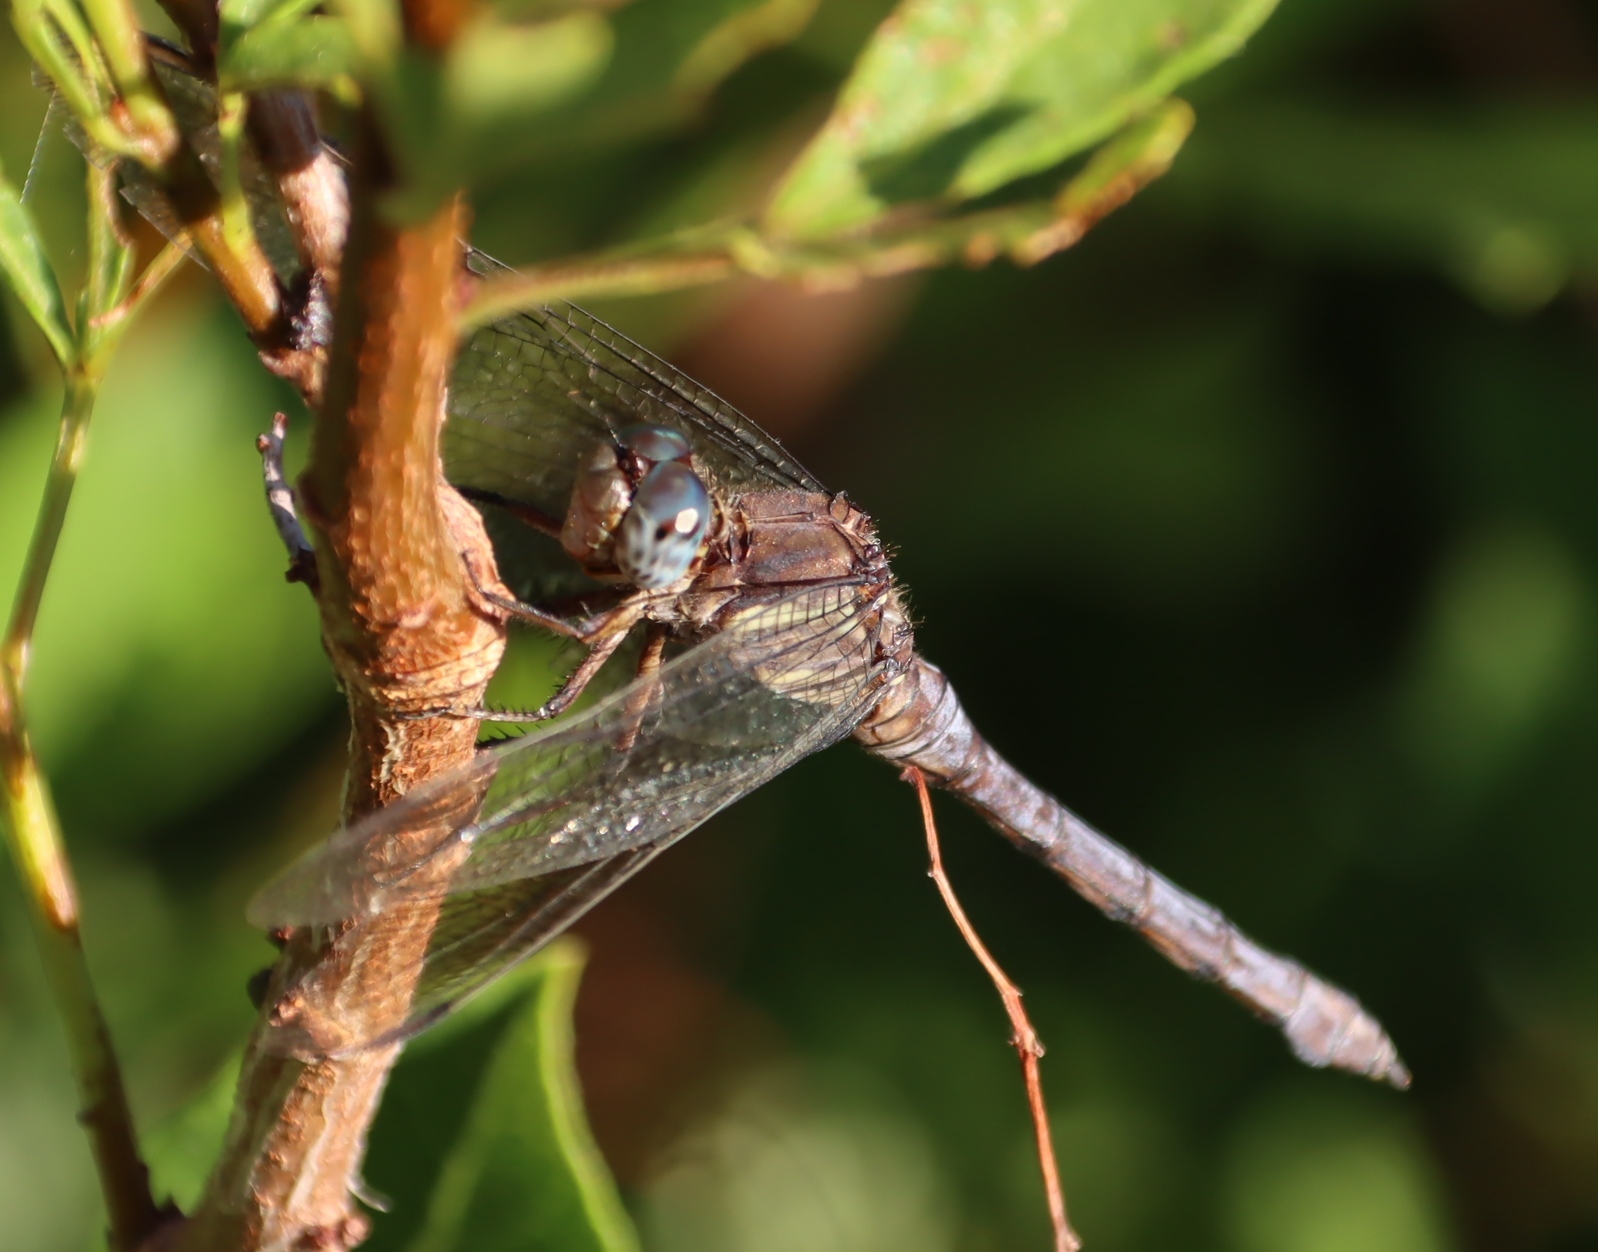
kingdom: Animalia
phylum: Arthropoda
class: Insecta
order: Odonata
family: Libellulidae
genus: Orthetrum
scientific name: Orthetrum julia
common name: Julia skimmer
